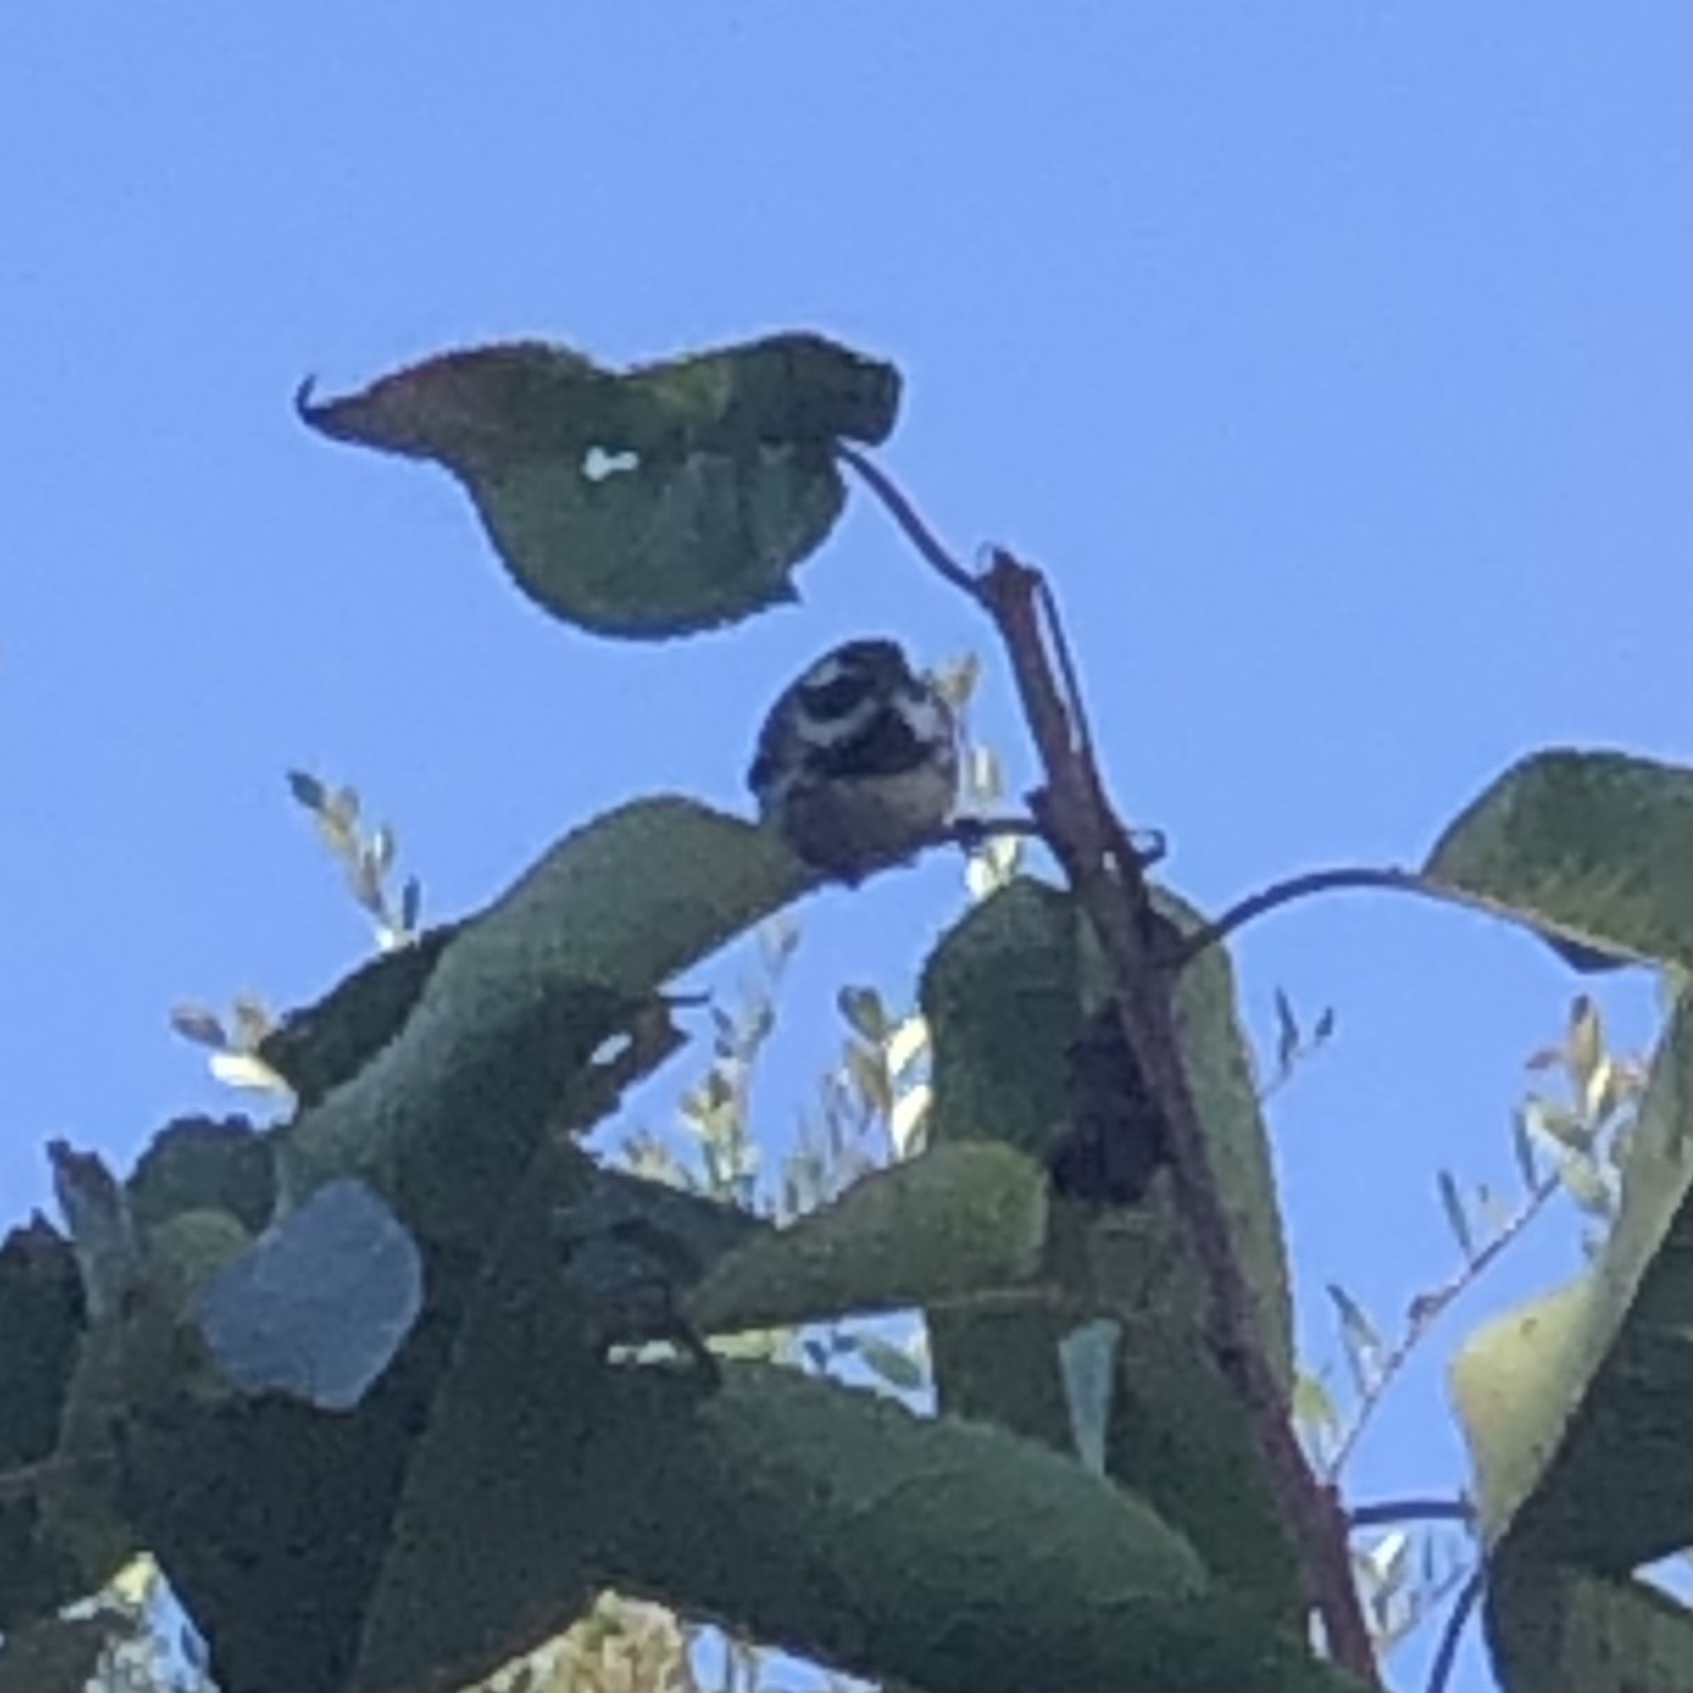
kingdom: Animalia
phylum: Chordata
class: Aves
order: Passeriformes
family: Parulidae
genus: Setophaga
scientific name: Setophaga nigrescens
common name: Black-throated gray warbler
